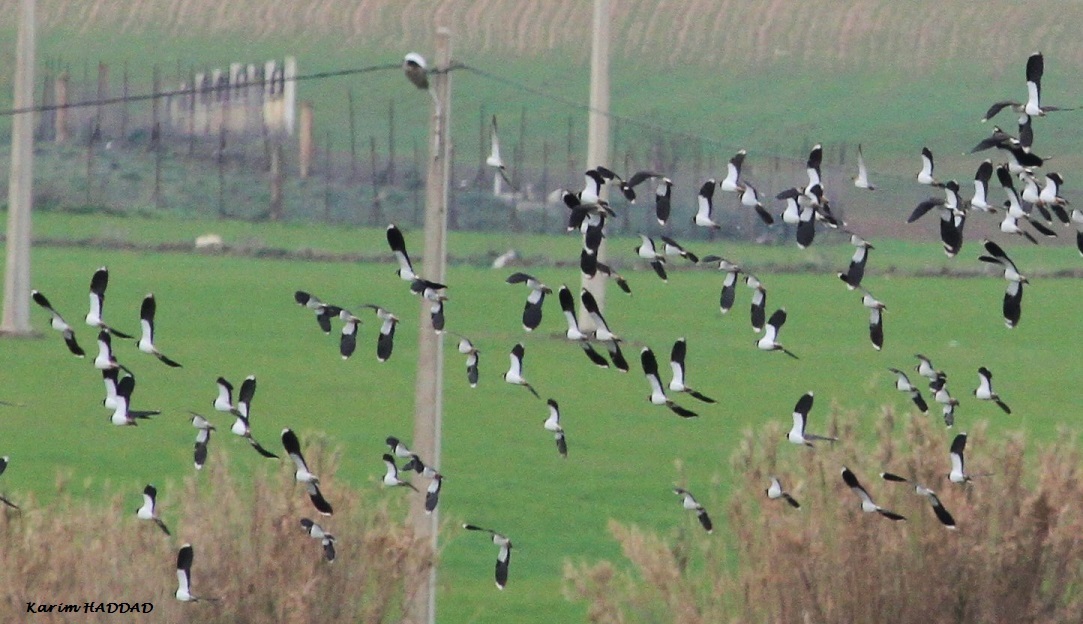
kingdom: Animalia
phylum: Chordata
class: Aves
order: Charadriiformes
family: Charadriidae
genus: Vanellus
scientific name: Vanellus vanellus
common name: Northern lapwing
